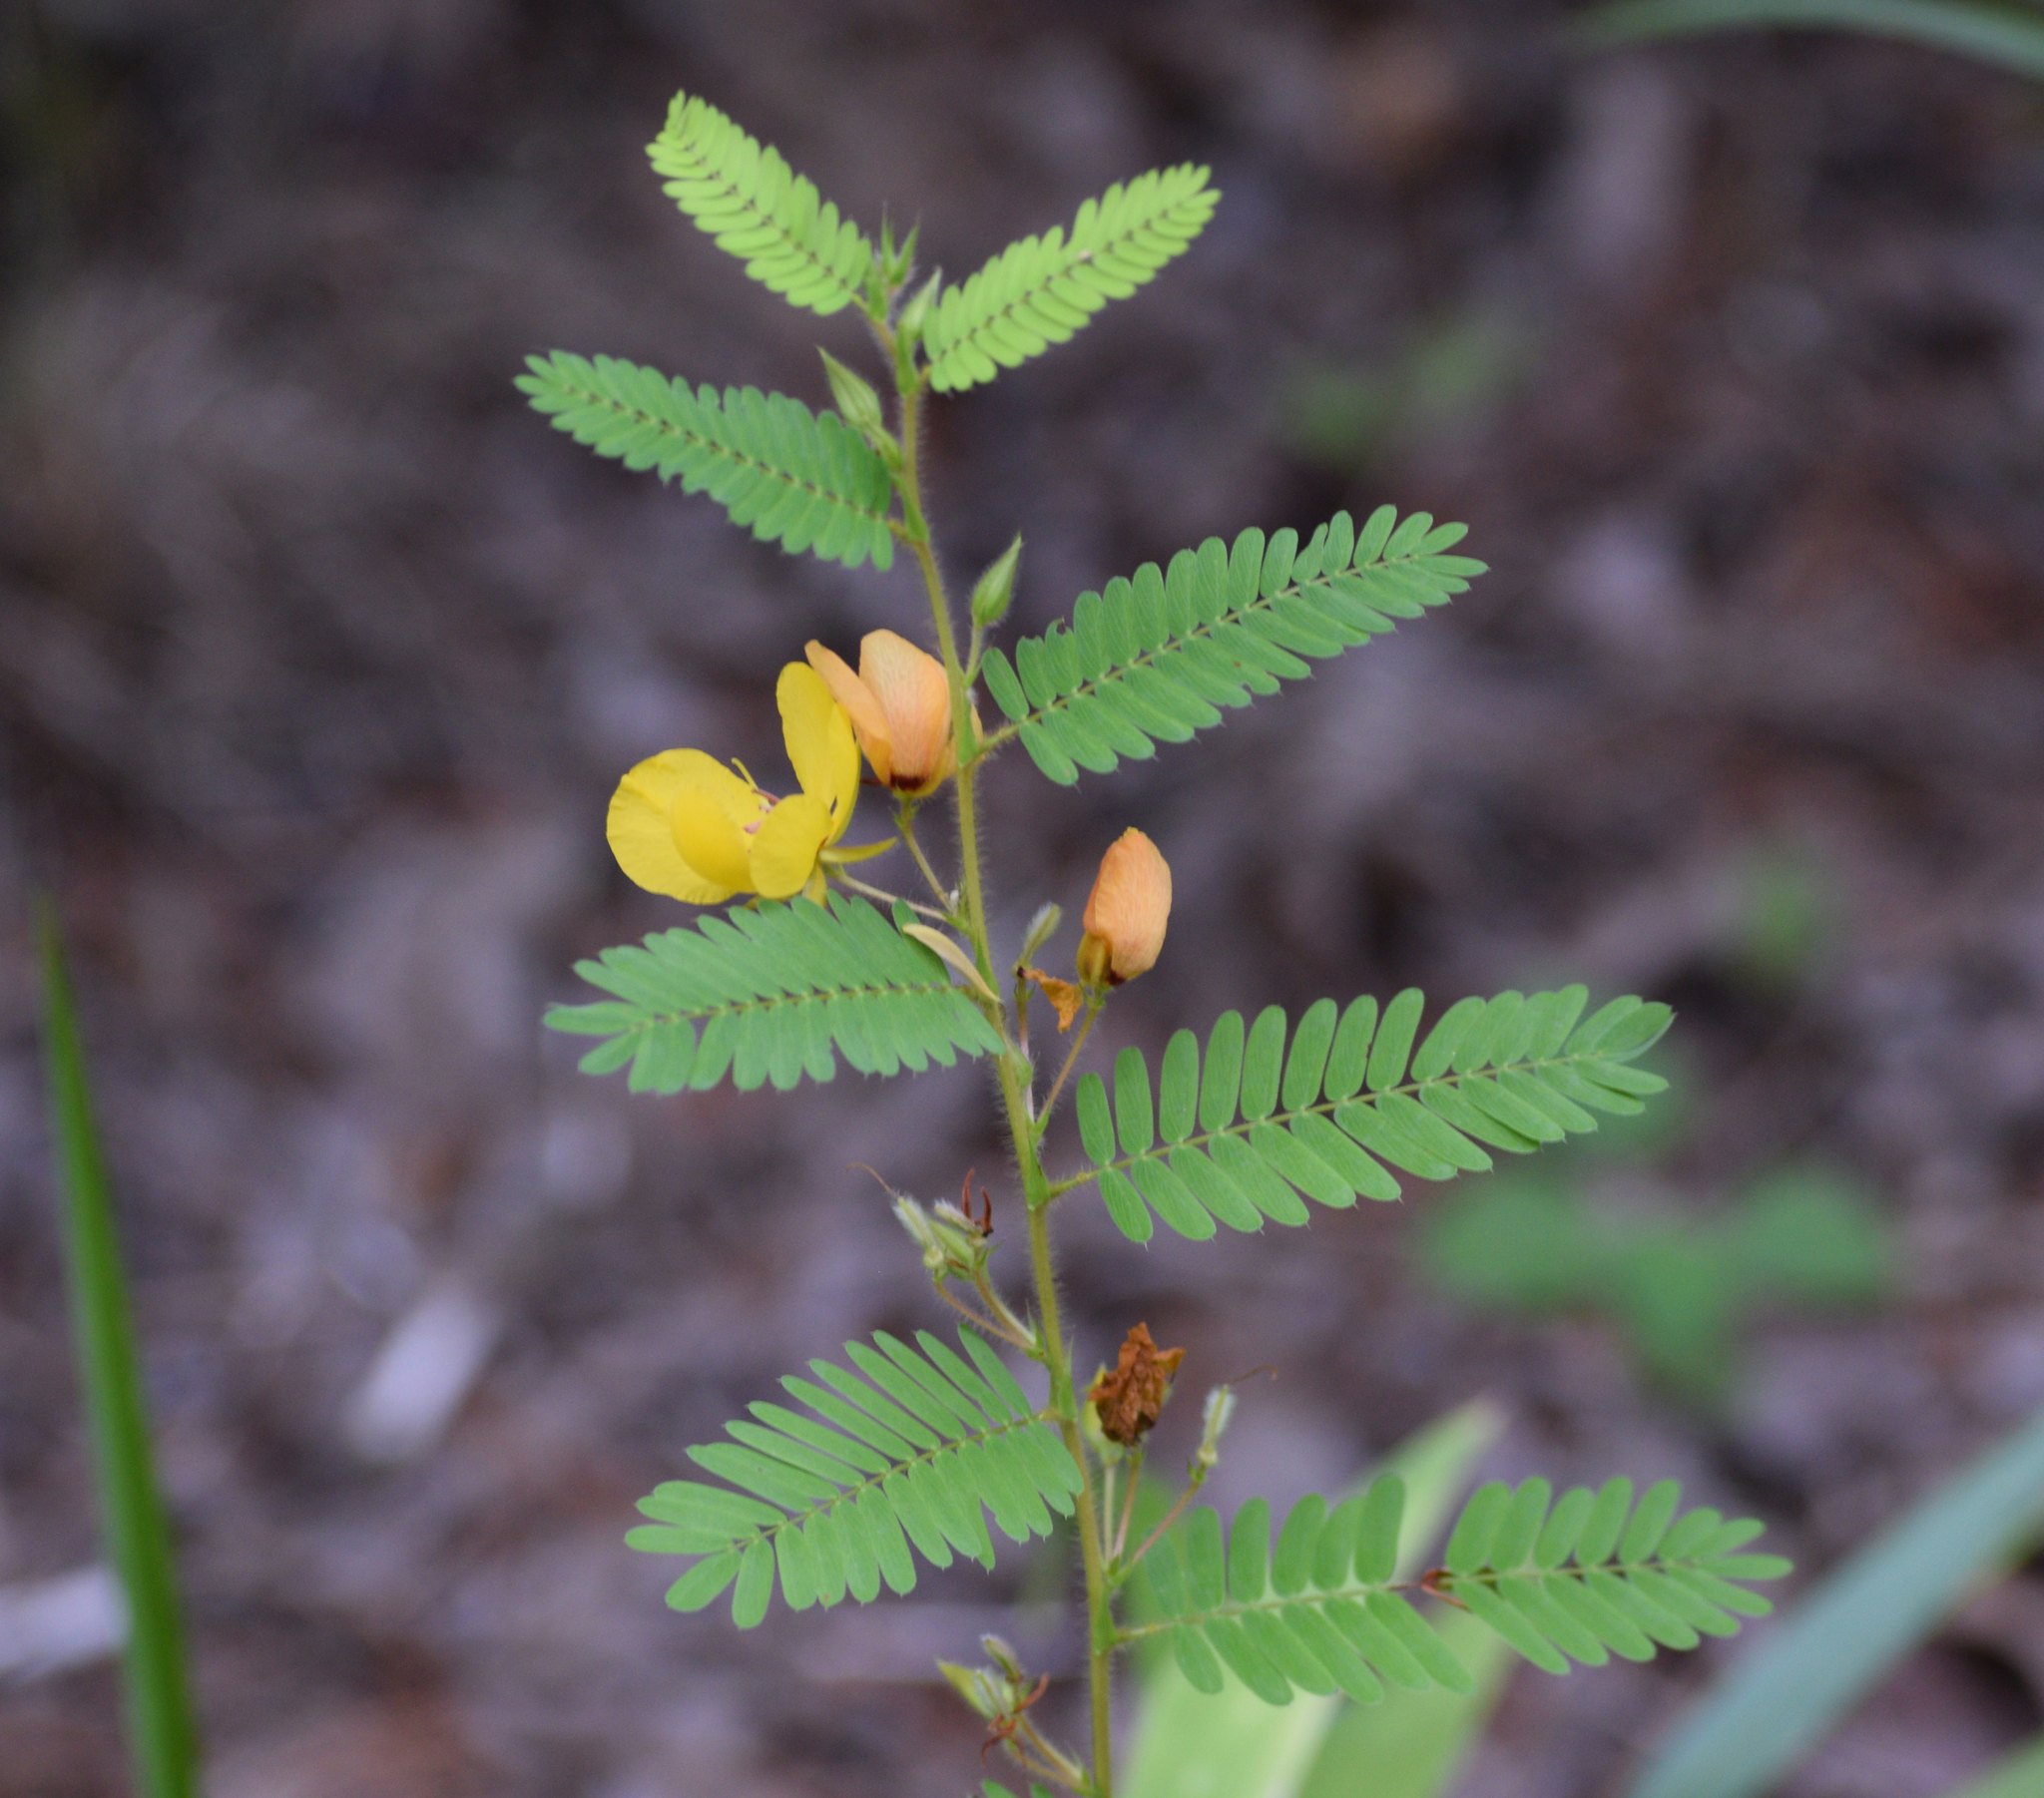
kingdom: Plantae
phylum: Tracheophyta
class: Magnoliopsida
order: Fabales
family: Fabaceae
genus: Chamaecrista
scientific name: Chamaecrista fasciculata
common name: Golden cassia
